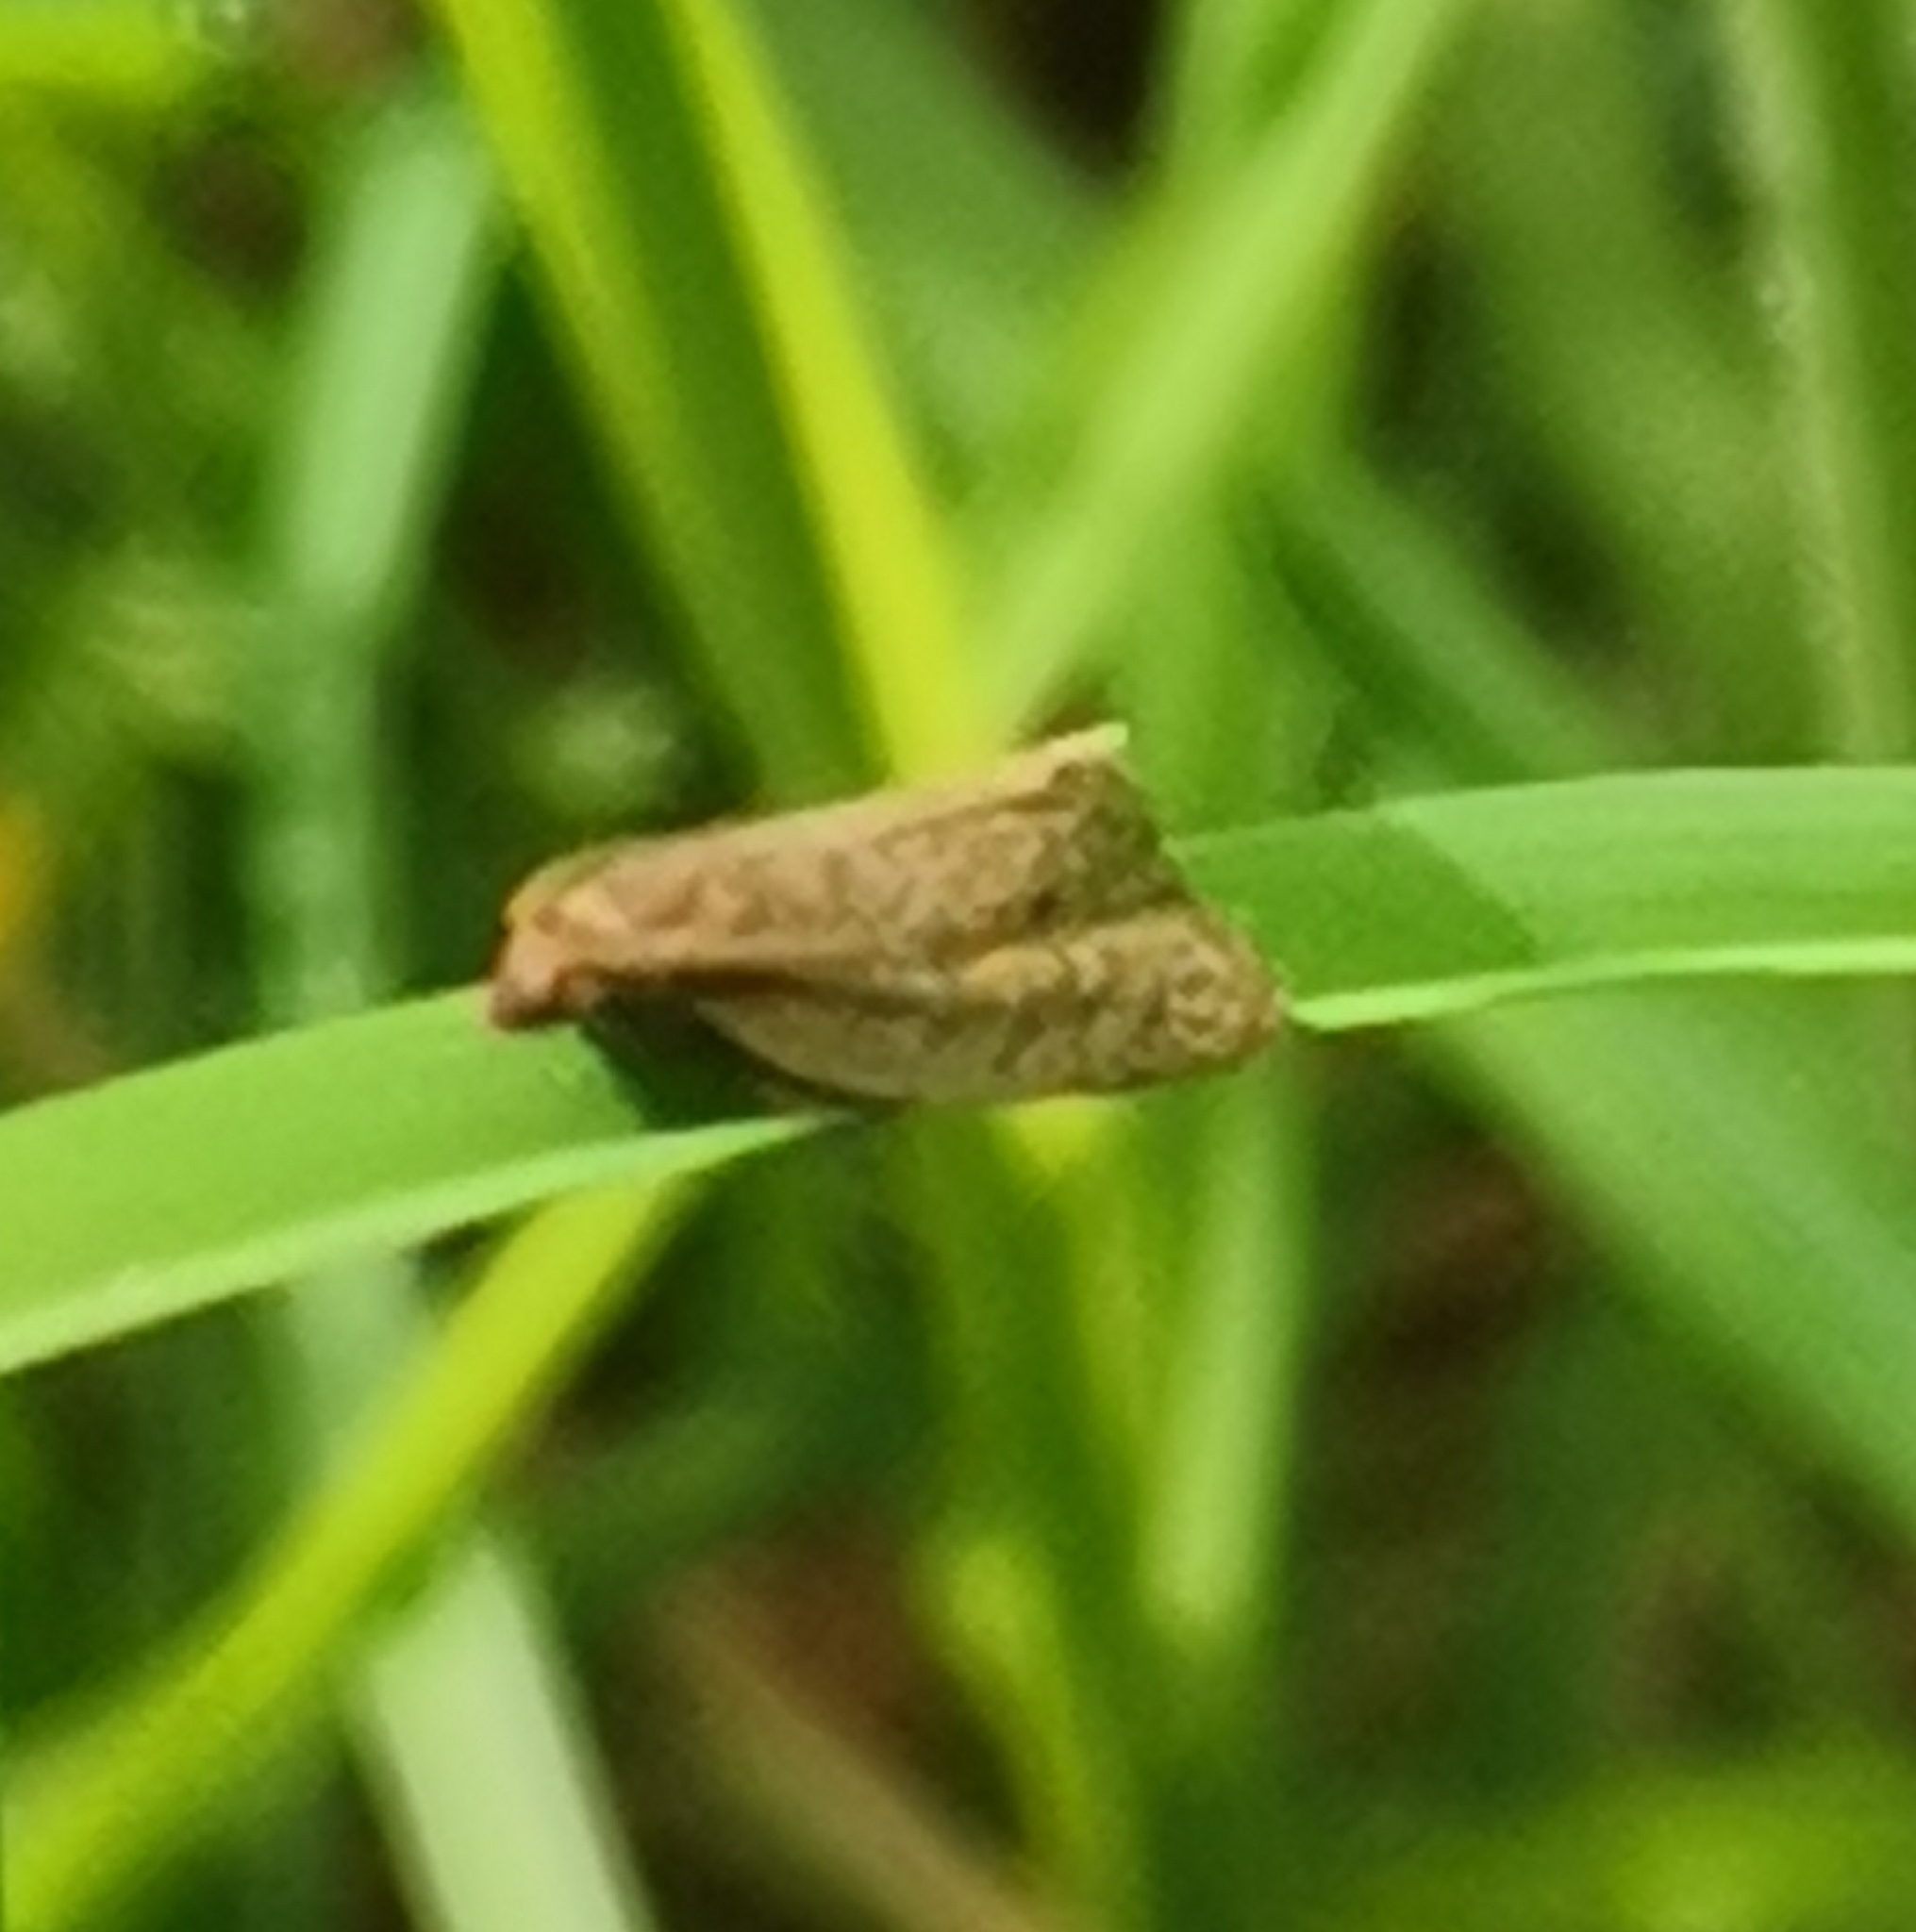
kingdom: Animalia
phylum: Arthropoda
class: Insecta
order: Lepidoptera
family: Tortricidae
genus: Clepsis
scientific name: Clepsis senecionana
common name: Obscure tortrix
